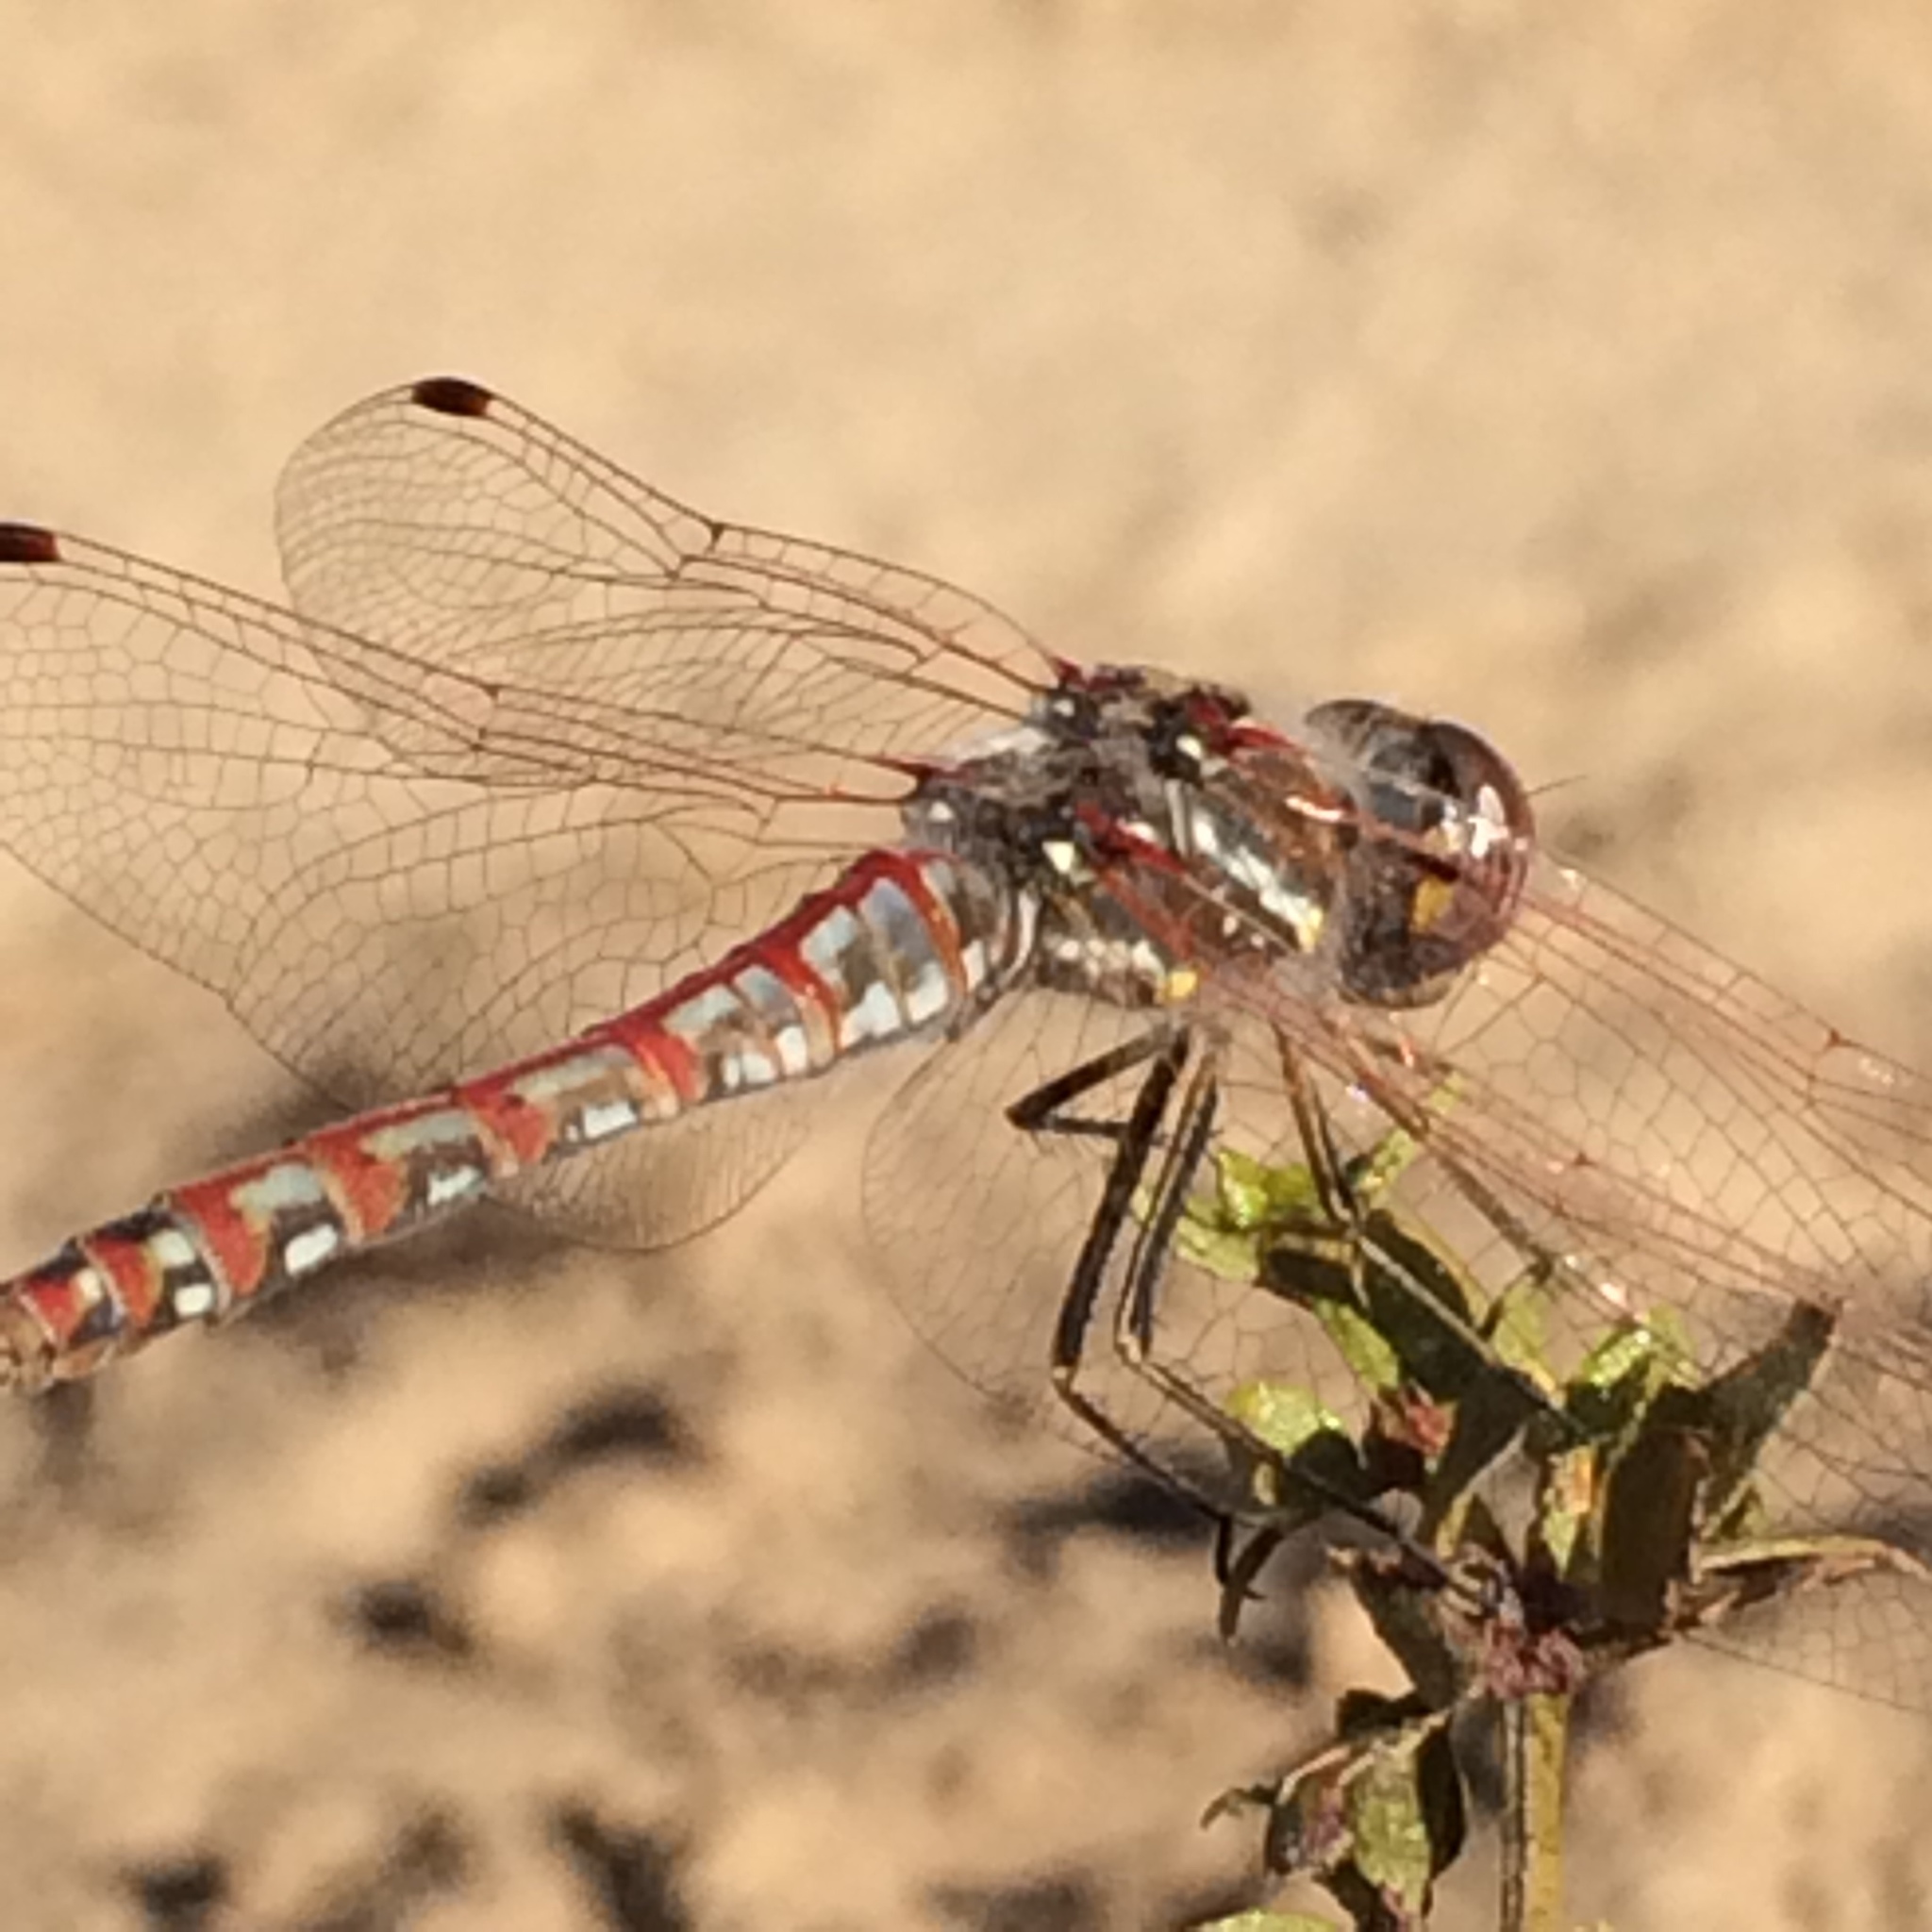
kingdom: Animalia
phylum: Arthropoda
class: Insecta
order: Odonata
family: Libellulidae
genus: Sympetrum
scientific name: Sympetrum corruptum
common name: Variegated meadowhawk
